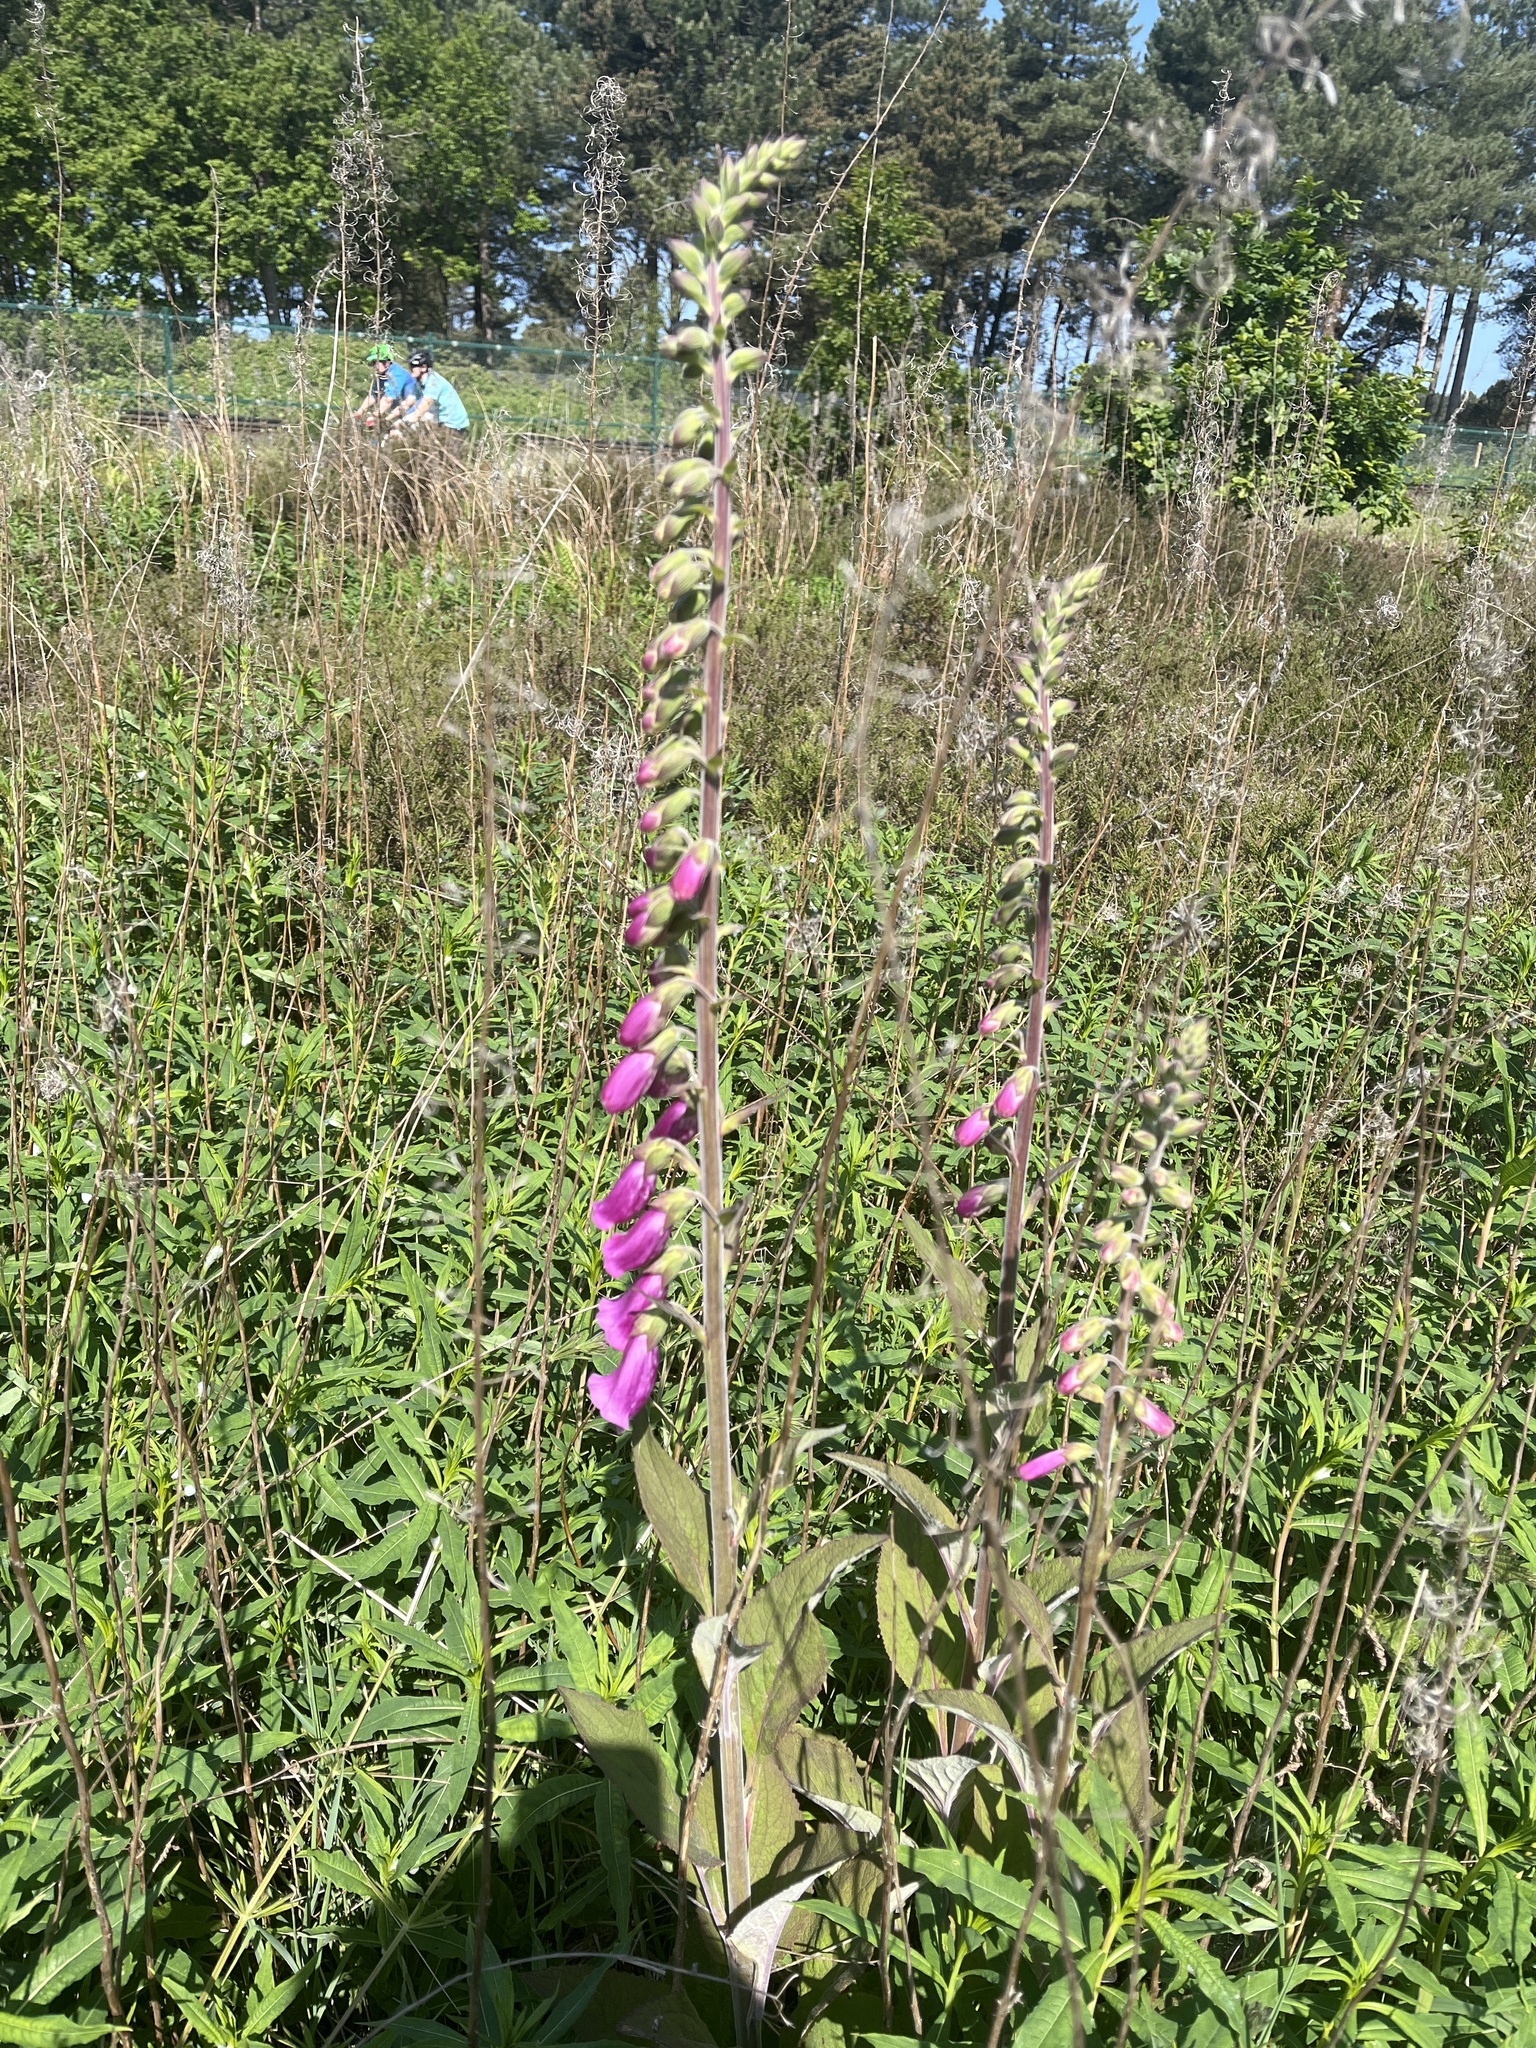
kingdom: Plantae
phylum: Tracheophyta
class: Magnoliopsida
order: Lamiales
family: Plantaginaceae
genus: Digitalis
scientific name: Digitalis purpurea
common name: Foxglove
